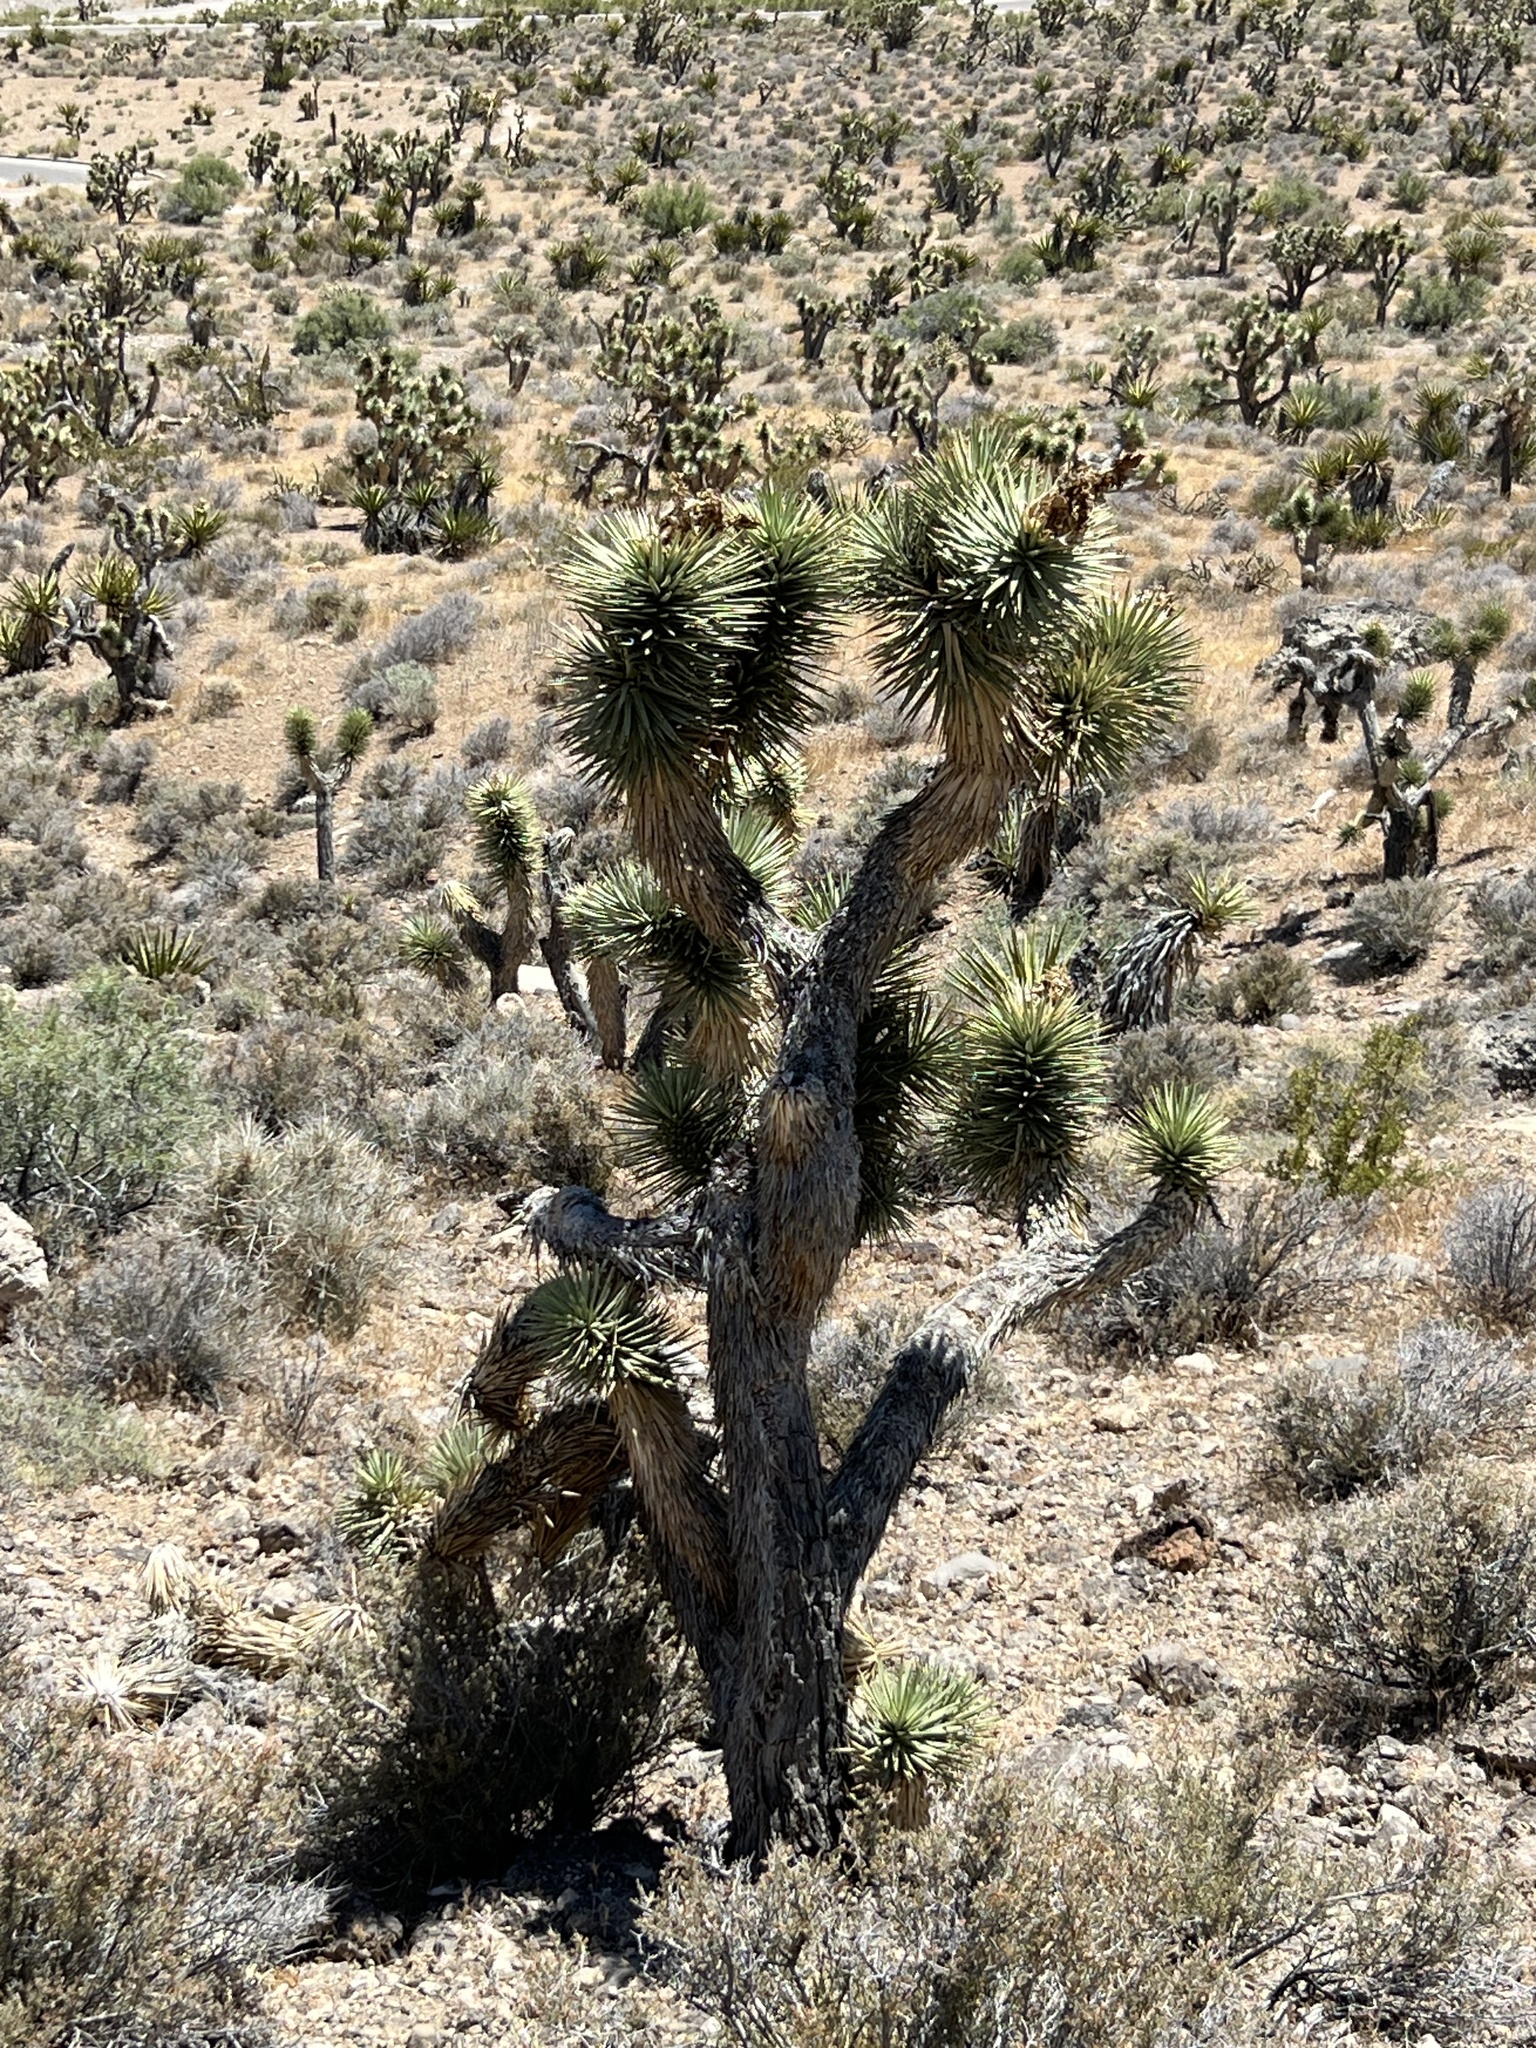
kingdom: Plantae
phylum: Tracheophyta
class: Liliopsida
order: Asparagales
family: Asparagaceae
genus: Yucca
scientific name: Yucca brevifolia
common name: Joshua tree
